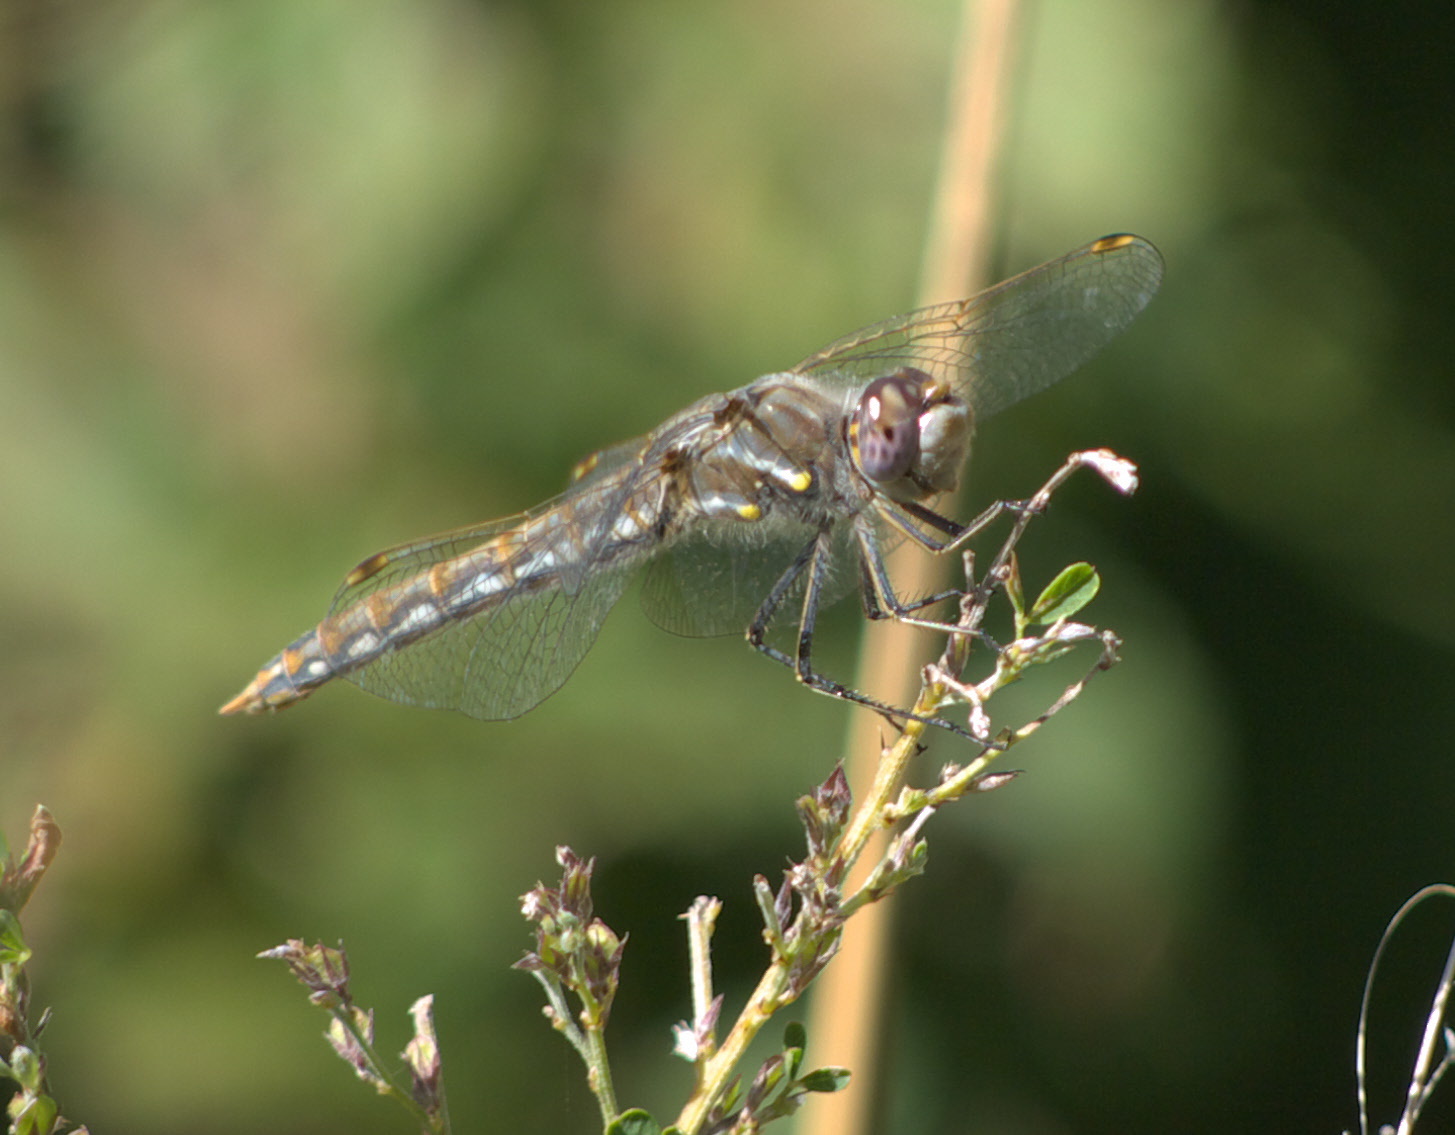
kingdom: Animalia
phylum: Arthropoda
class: Insecta
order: Odonata
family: Libellulidae
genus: Sympetrum
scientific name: Sympetrum corruptum
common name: Variegated meadowhawk
